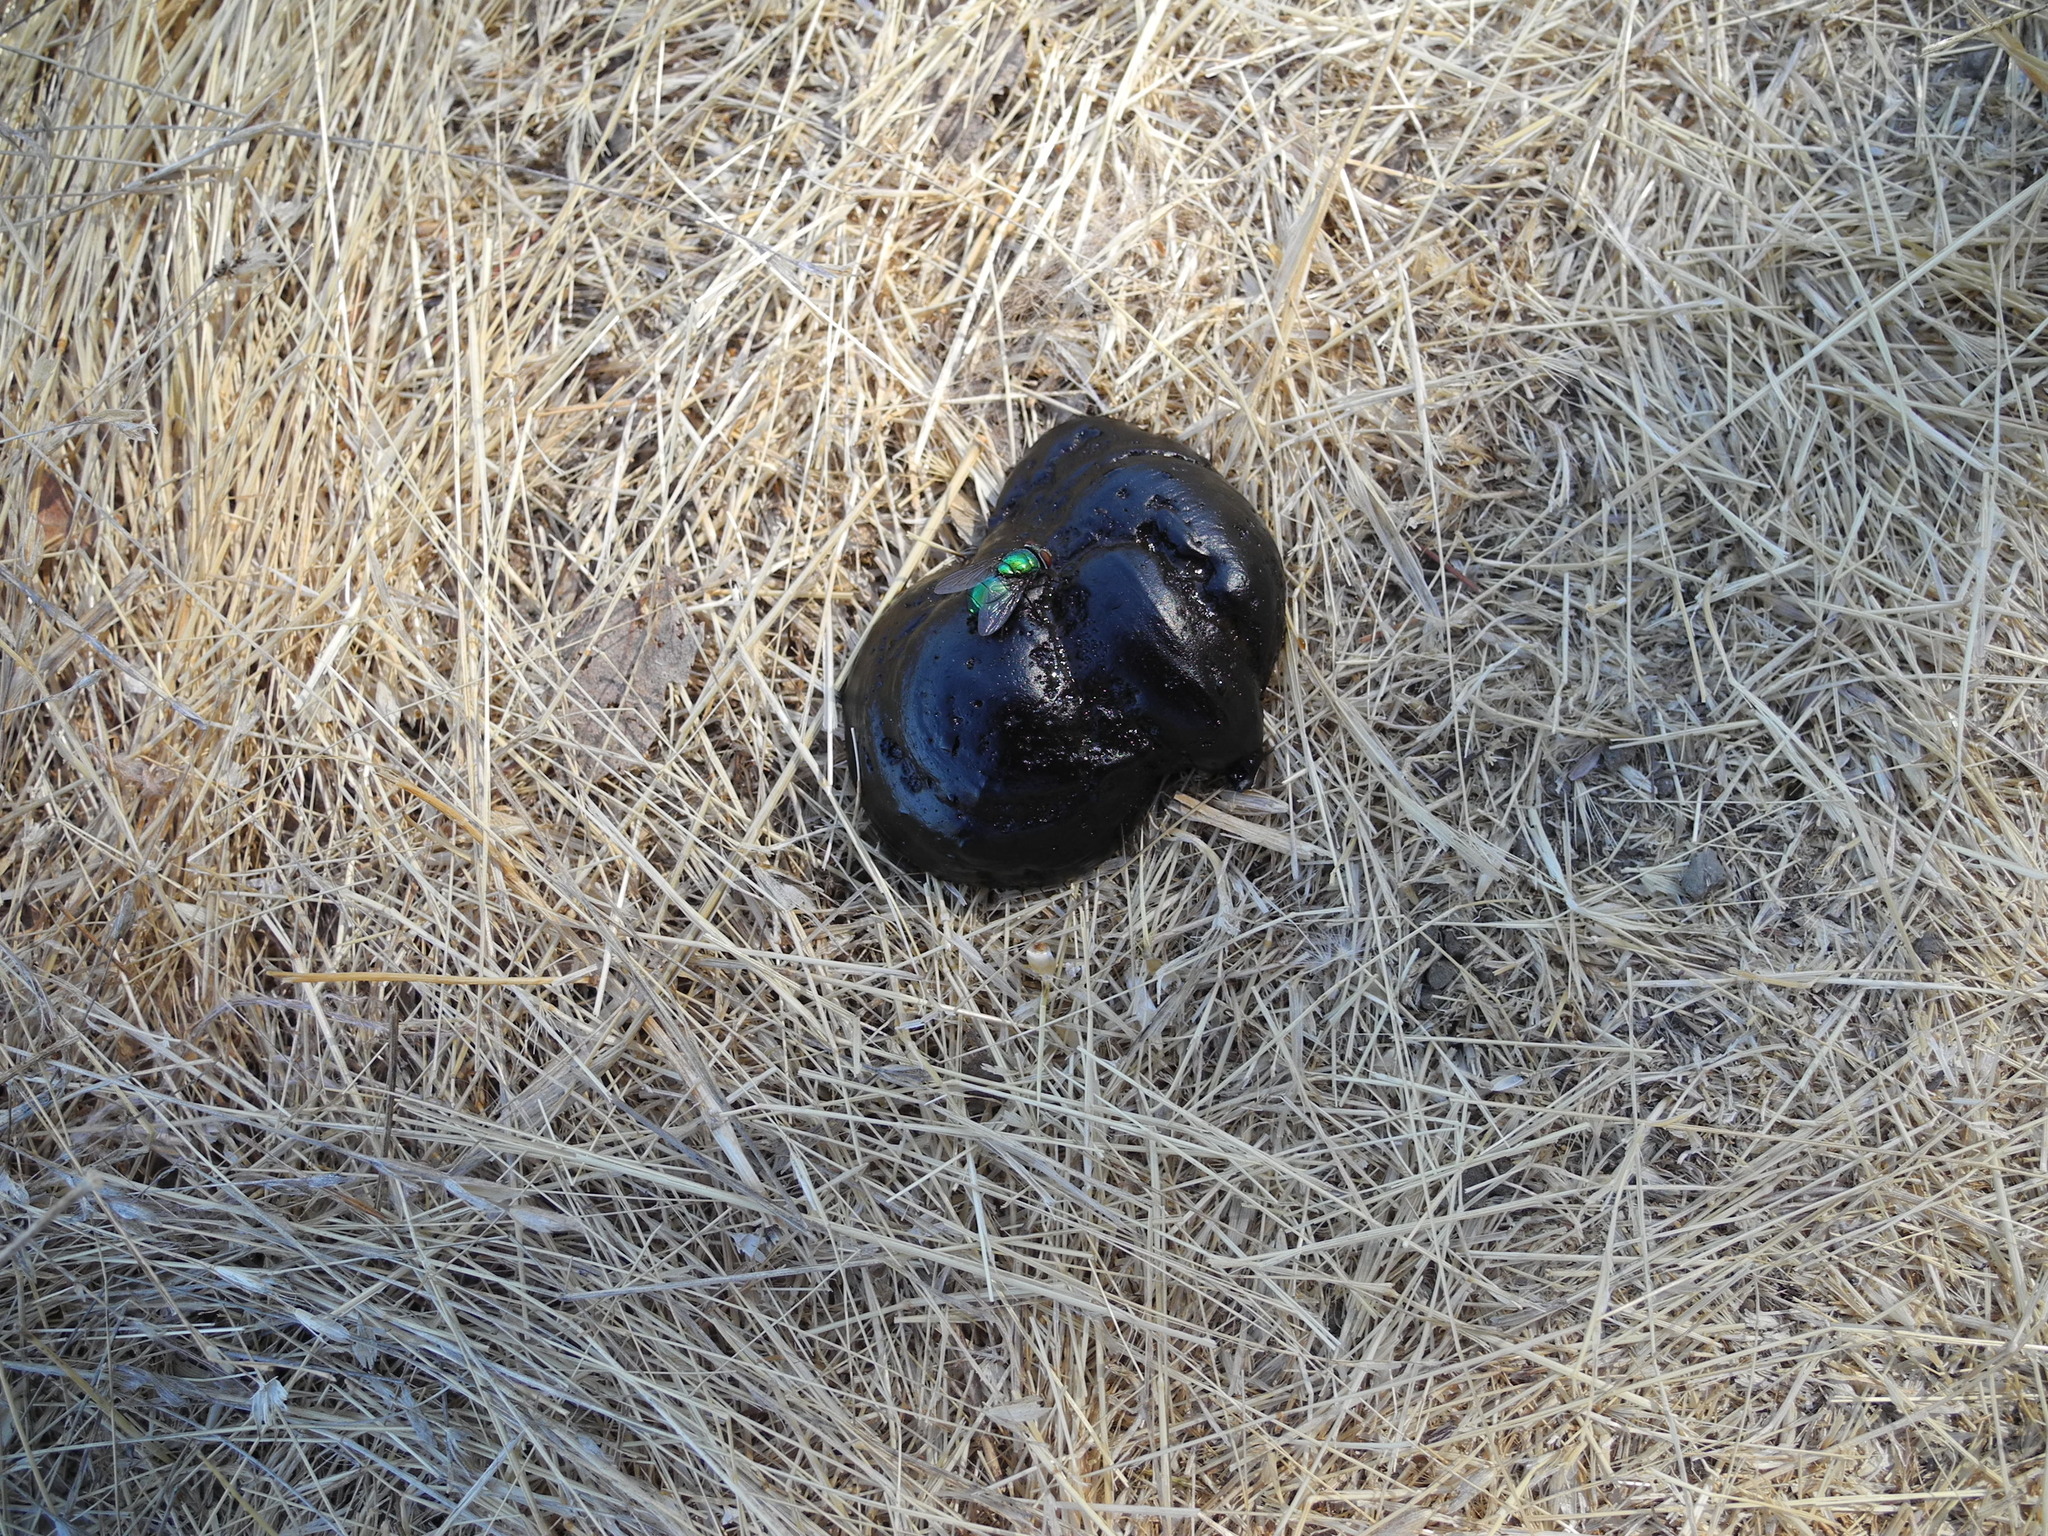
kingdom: Animalia
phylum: Chordata
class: Aves
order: Galliformes
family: Phasianidae
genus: Meleagris
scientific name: Meleagris gallopavo
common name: Wild turkey
